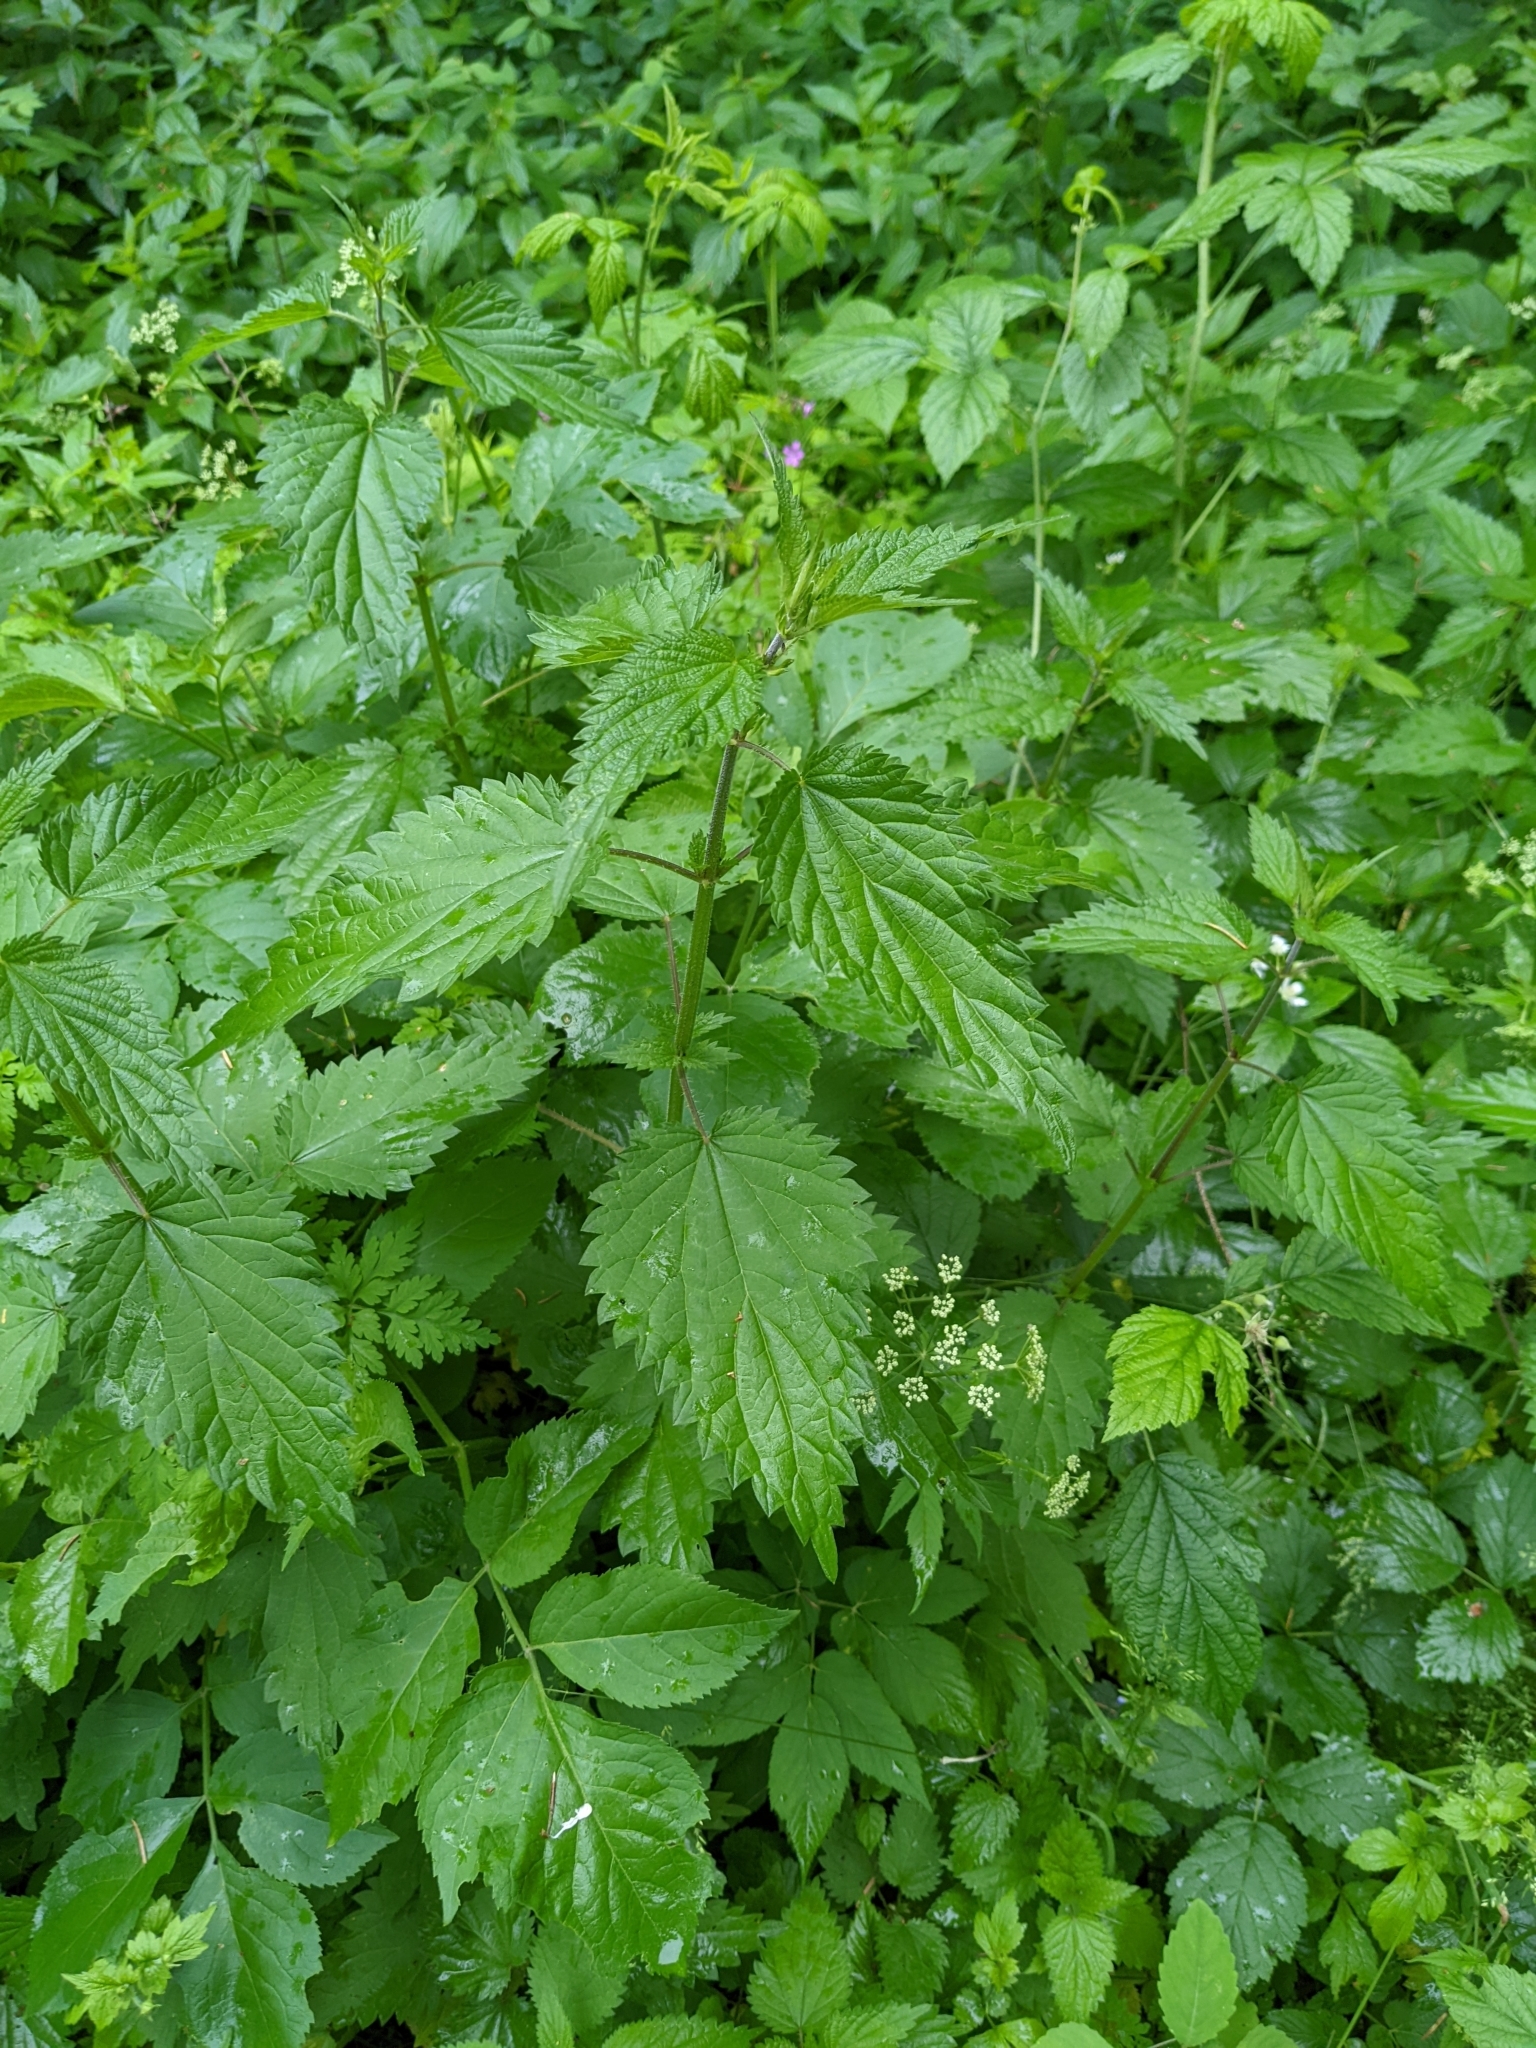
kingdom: Plantae
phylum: Tracheophyta
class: Magnoliopsida
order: Rosales
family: Urticaceae
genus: Urtica
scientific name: Urtica dioica
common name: Common nettle
